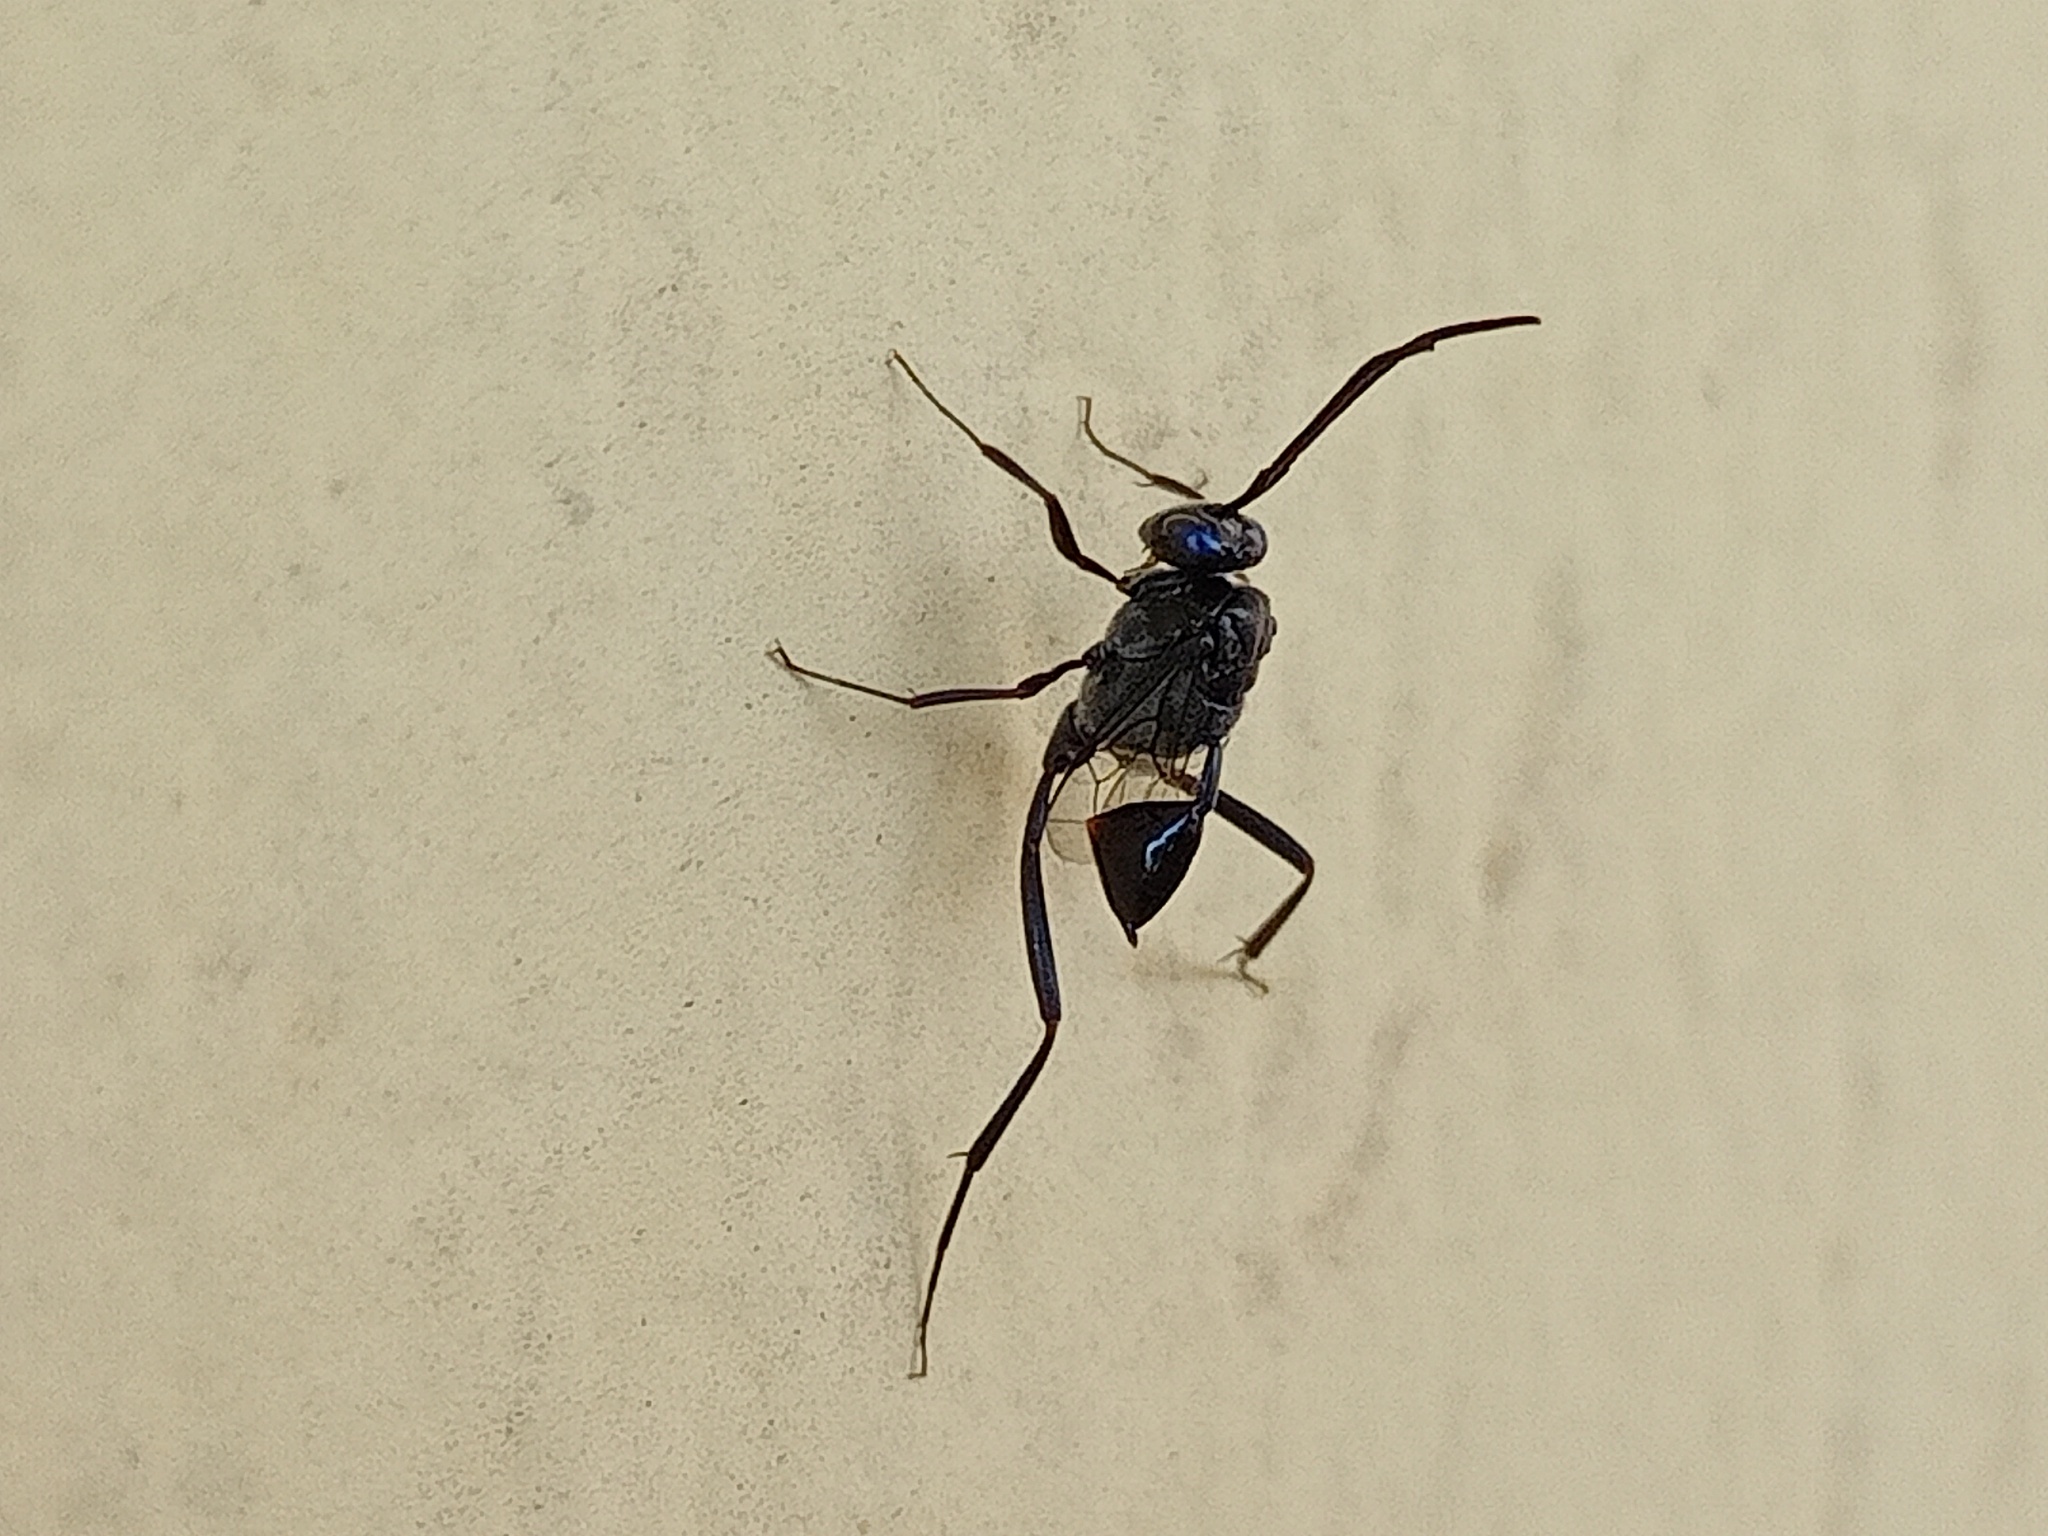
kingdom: Animalia
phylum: Arthropoda
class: Insecta
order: Hymenoptera
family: Evaniidae
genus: Evania
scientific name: Evania appendigaster
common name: Ensign wasp
